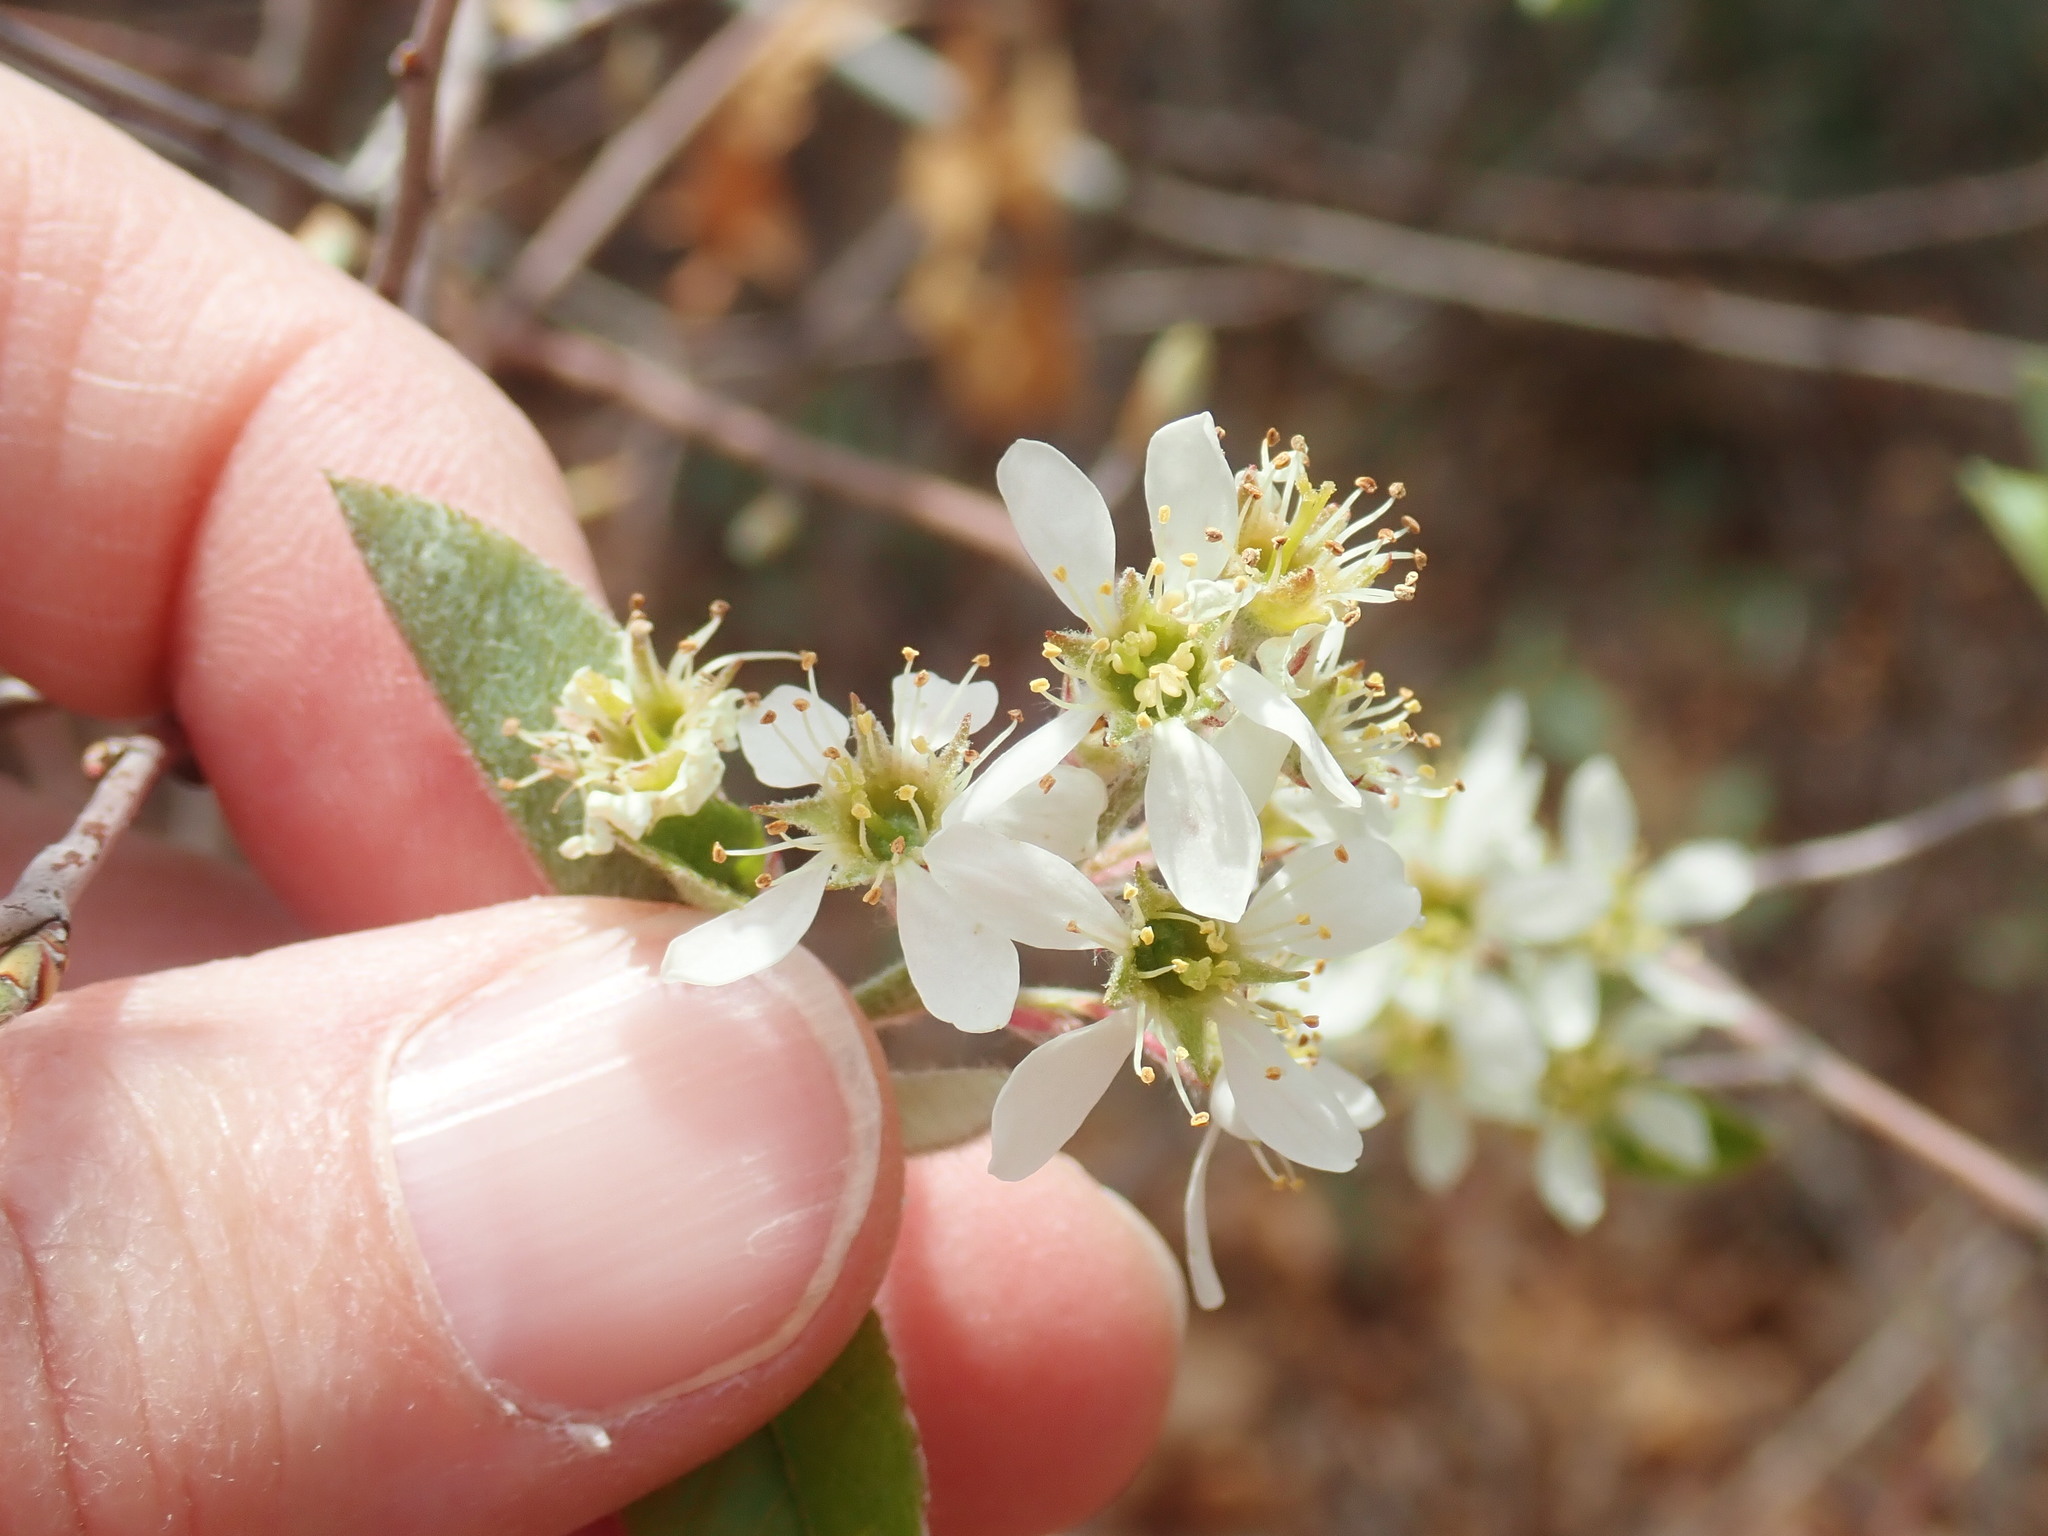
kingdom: Plantae
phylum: Tracheophyta
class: Magnoliopsida
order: Rosales
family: Rosaceae
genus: Amelanchier
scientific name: Amelanchier
